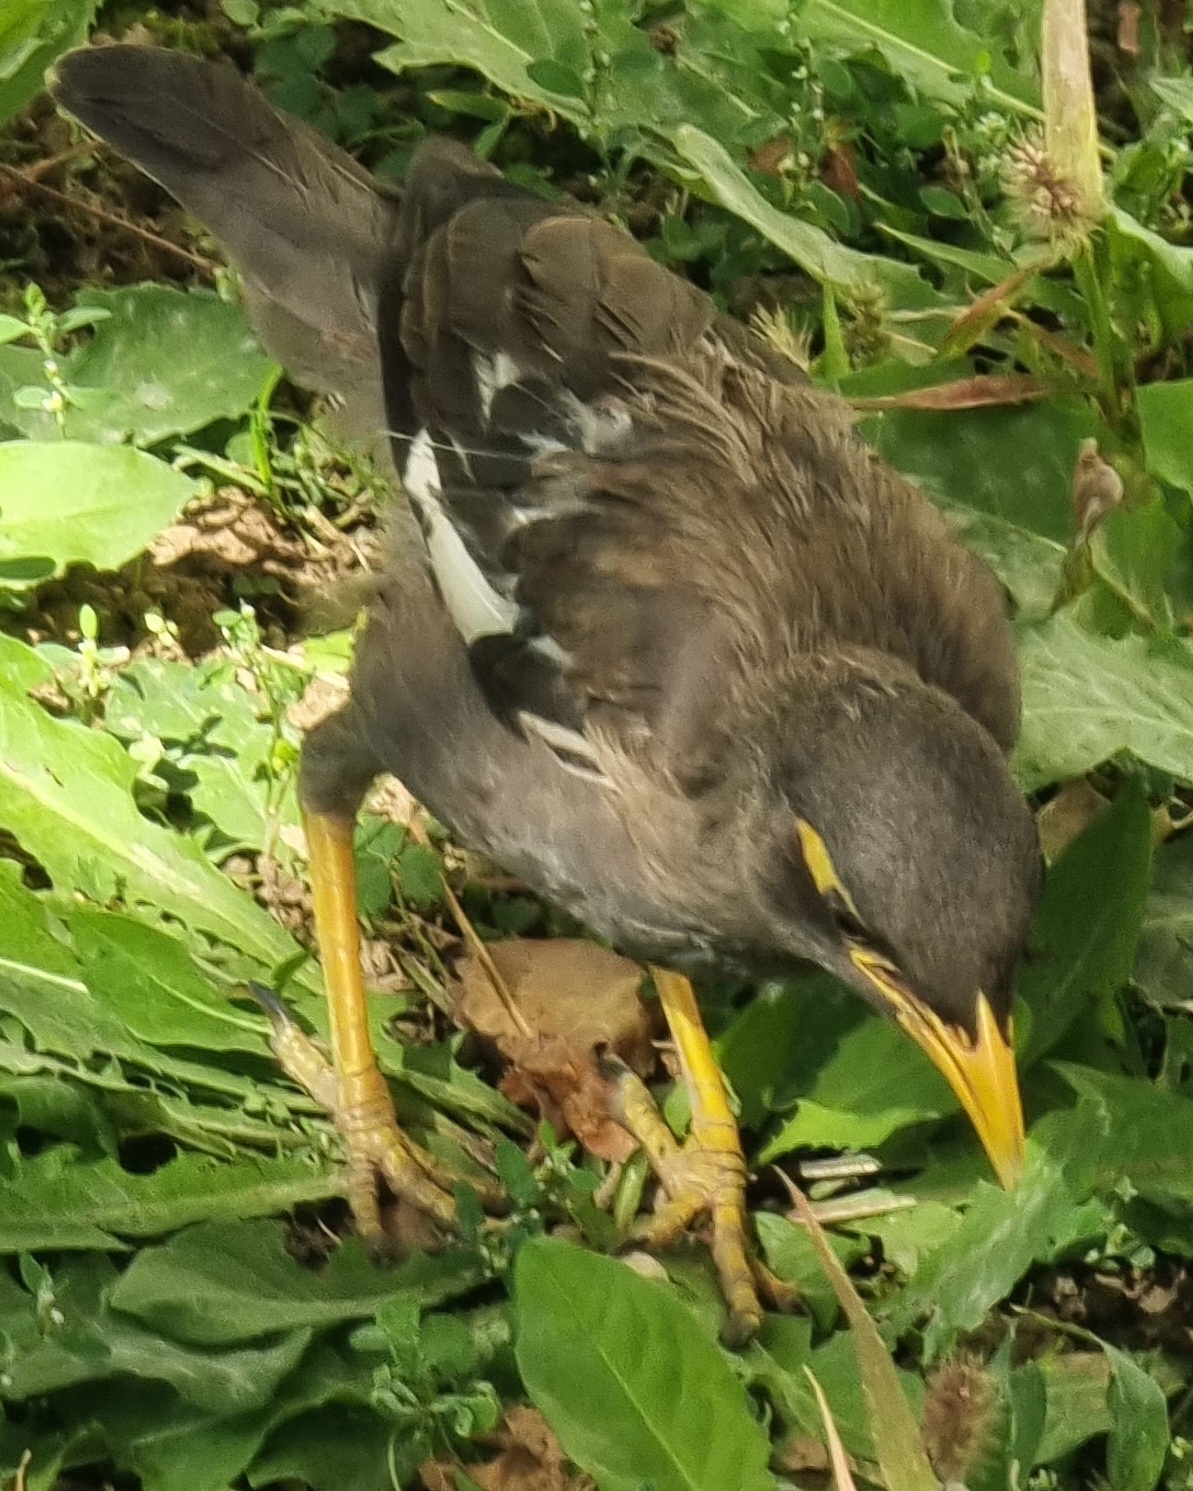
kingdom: Animalia
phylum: Chordata
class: Aves
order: Passeriformes
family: Sturnidae
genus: Acridotheres
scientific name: Acridotheres tristis
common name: Common myna
